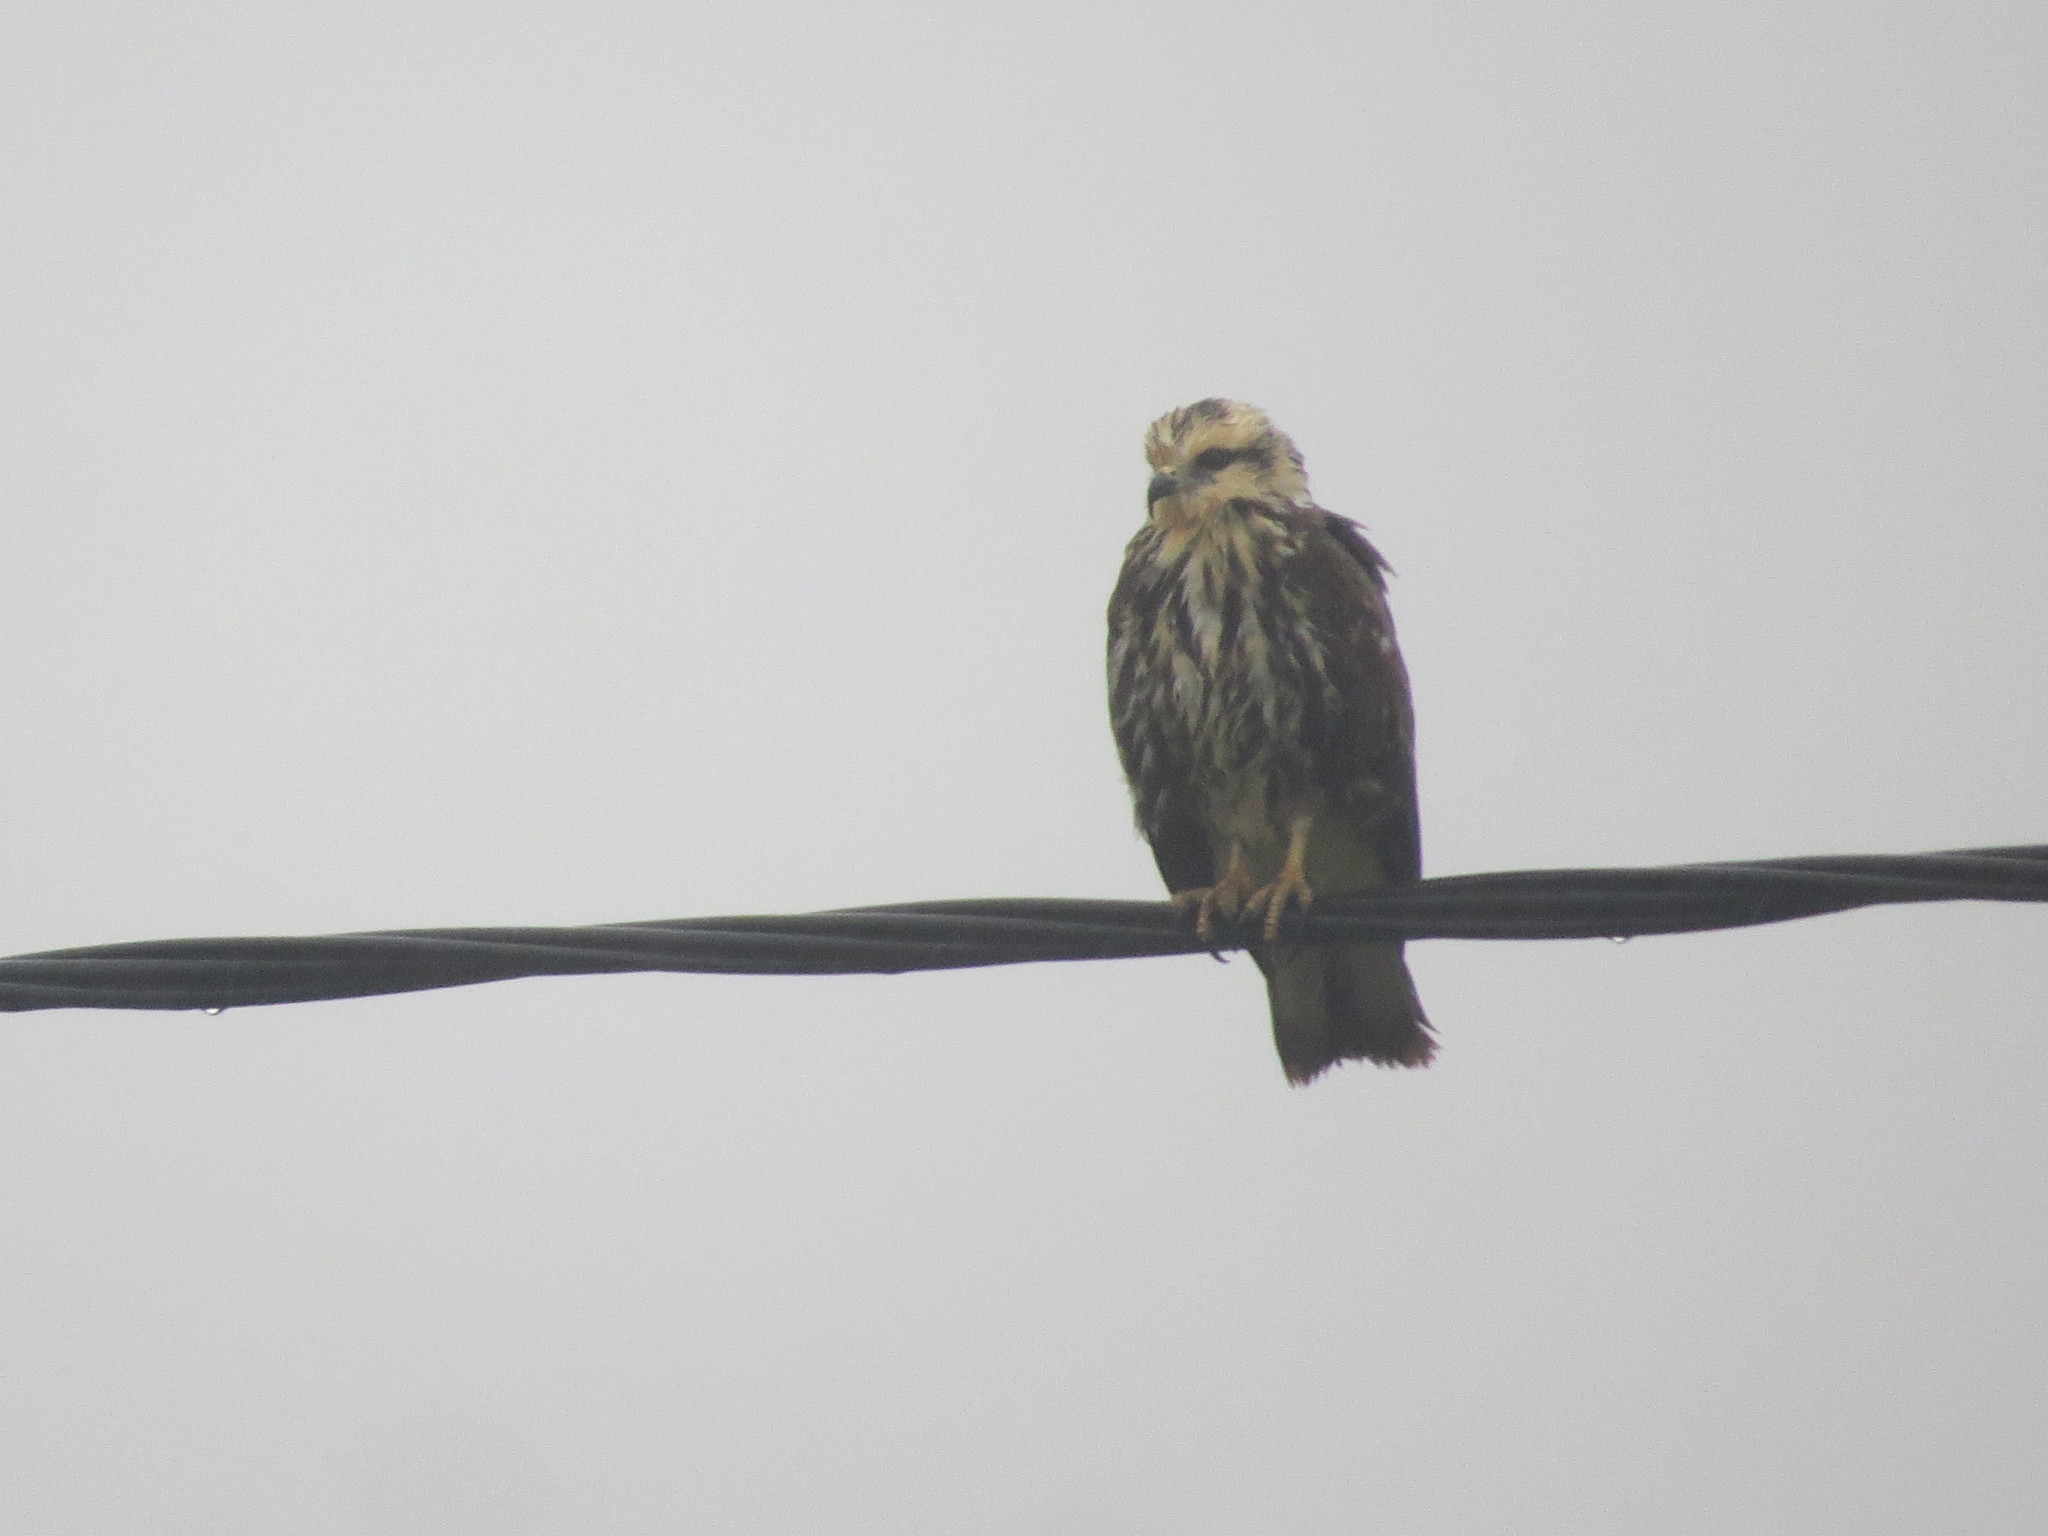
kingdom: Animalia
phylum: Chordata
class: Aves
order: Accipitriformes
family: Accipitridae
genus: Rostrhamus
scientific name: Rostrhamus sociabilis
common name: Snail kite
